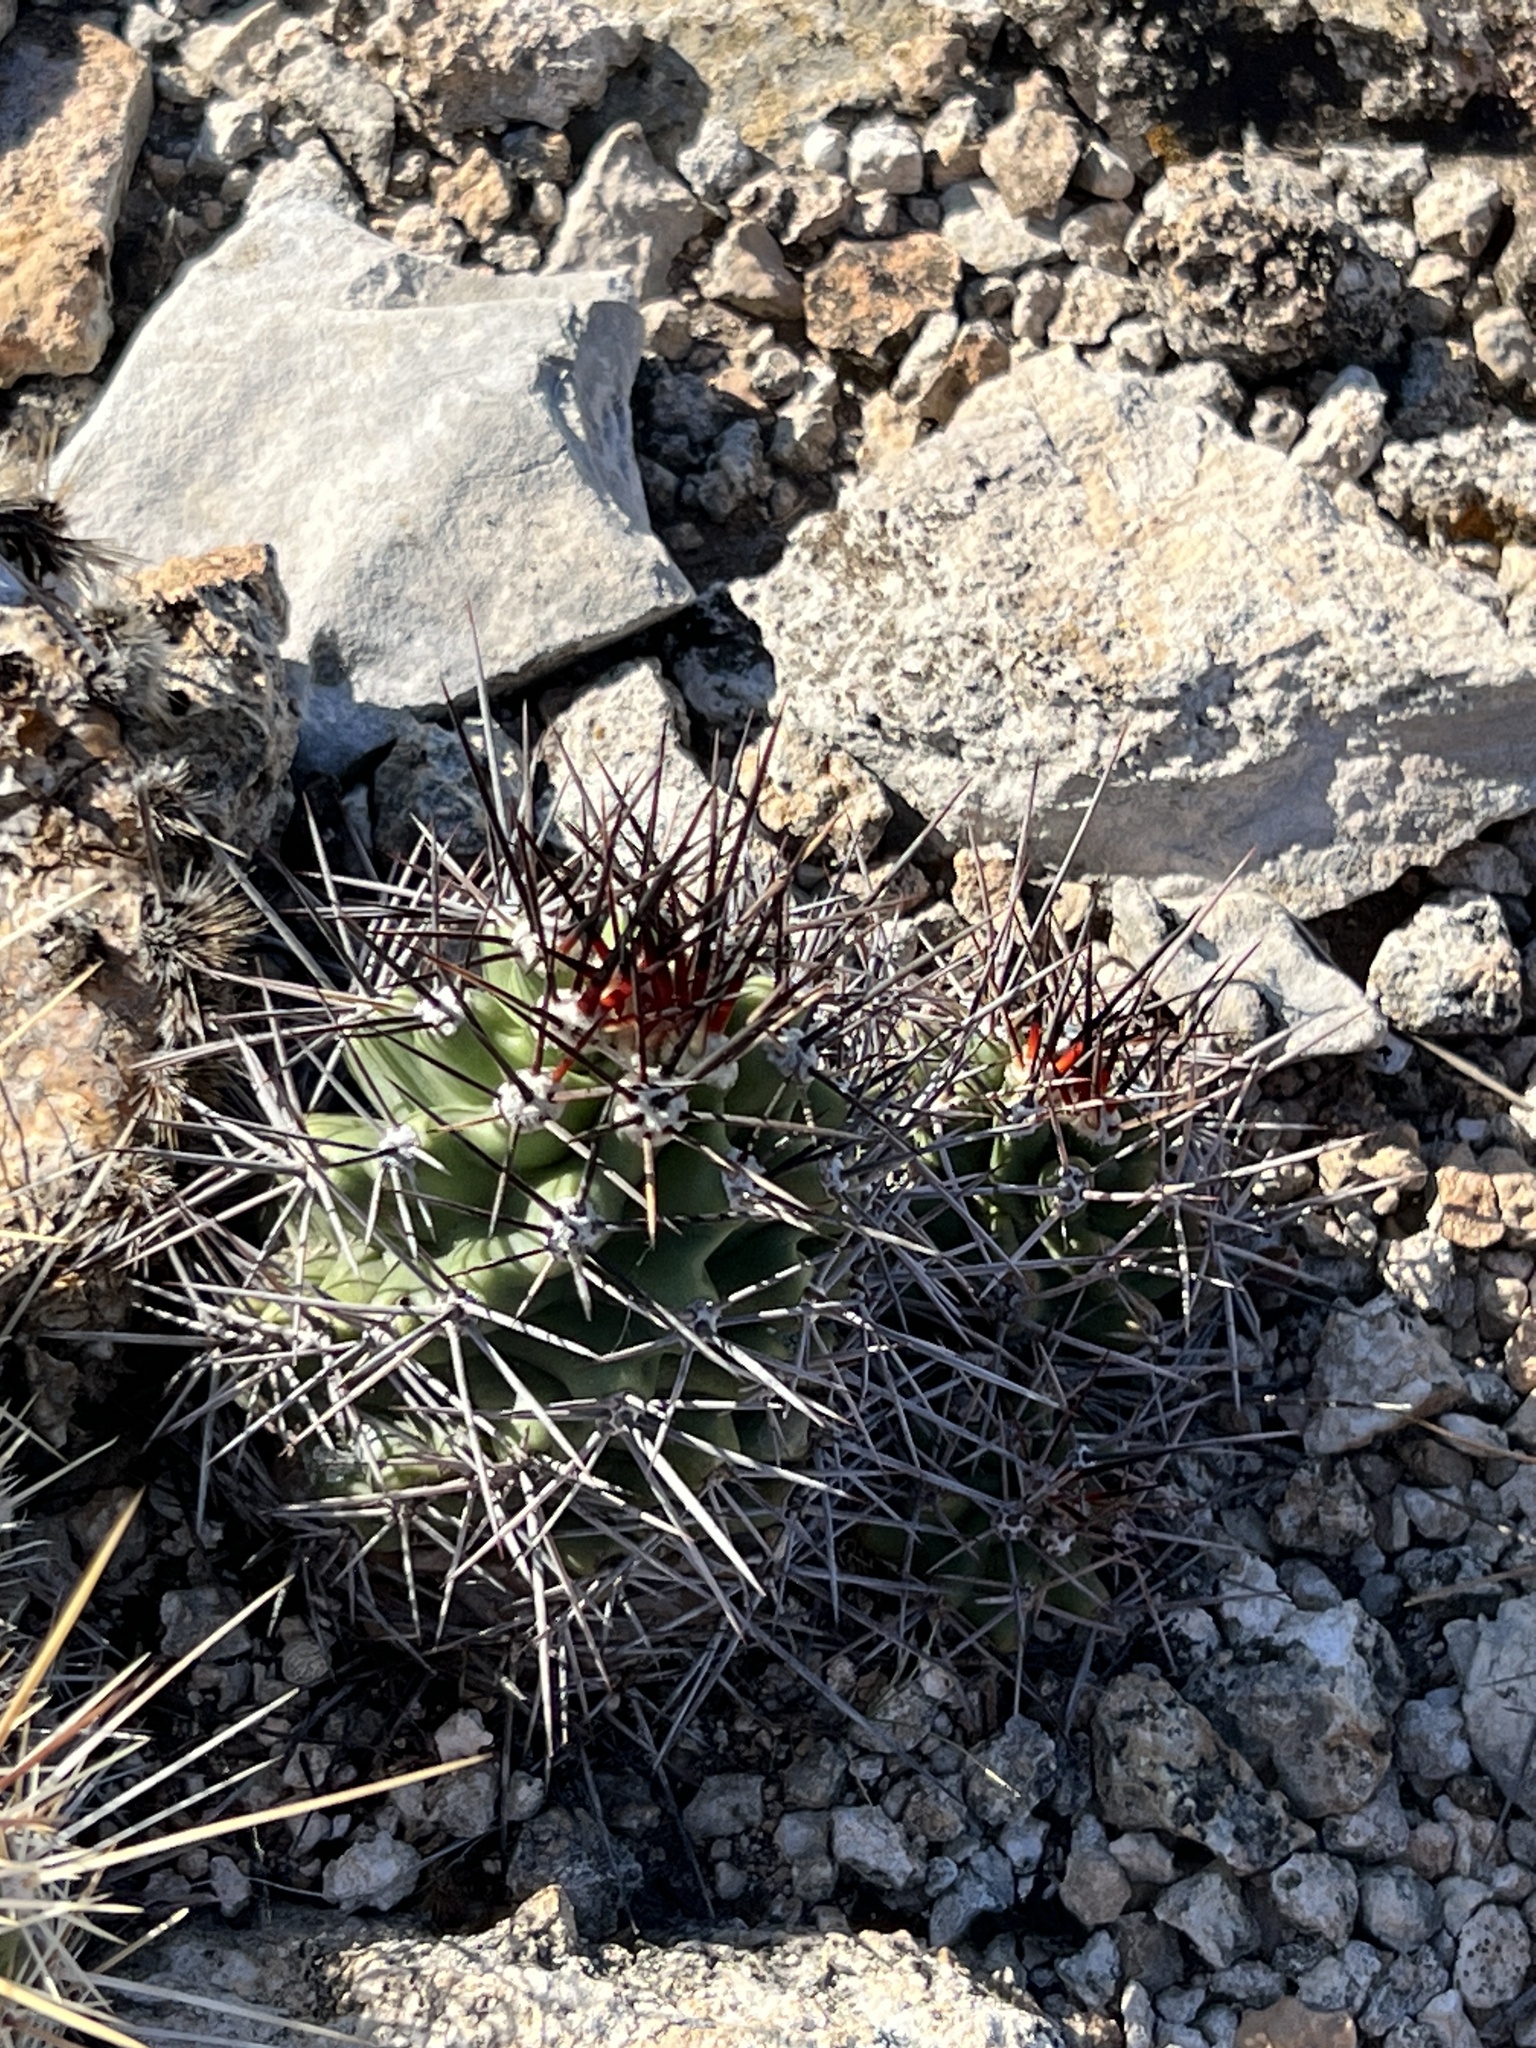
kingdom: Plantae
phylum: Tracheophyta
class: Magnoliopsida
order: Caryophyllales
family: Cactaceae
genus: Echinocereus
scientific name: Echinocereus coccineus
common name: Scarlet hedgehog cactus
